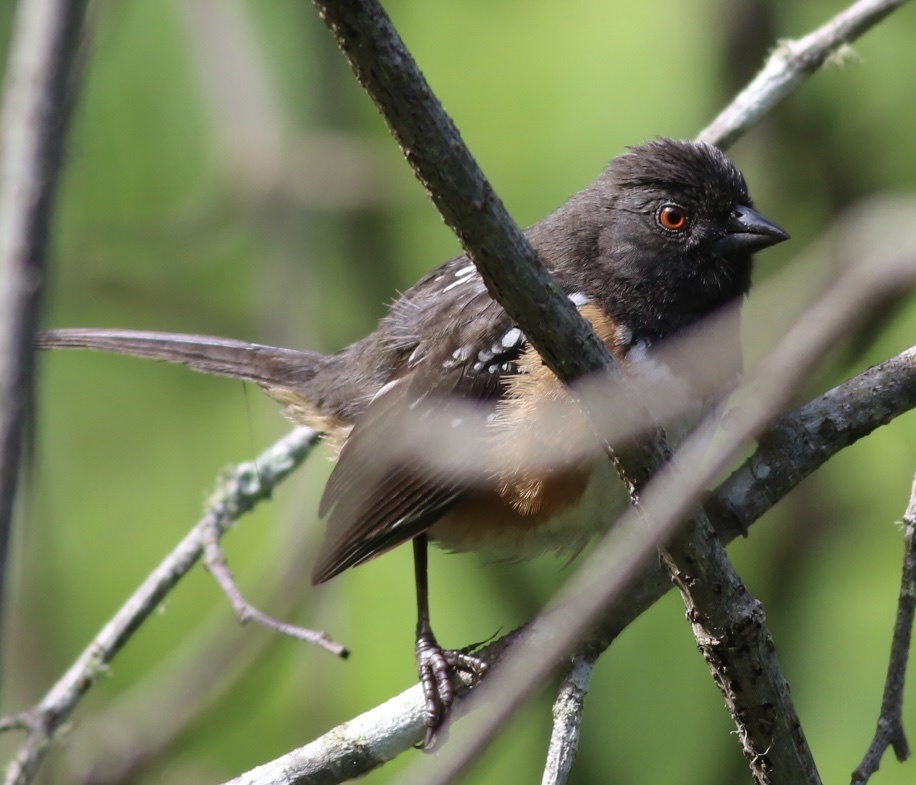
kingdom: Animalia
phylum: Chordata
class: Aves
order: Passeriformes
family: Passerellidae
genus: Pipilo
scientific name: Pipilo maculatus
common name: Spotted towhee
